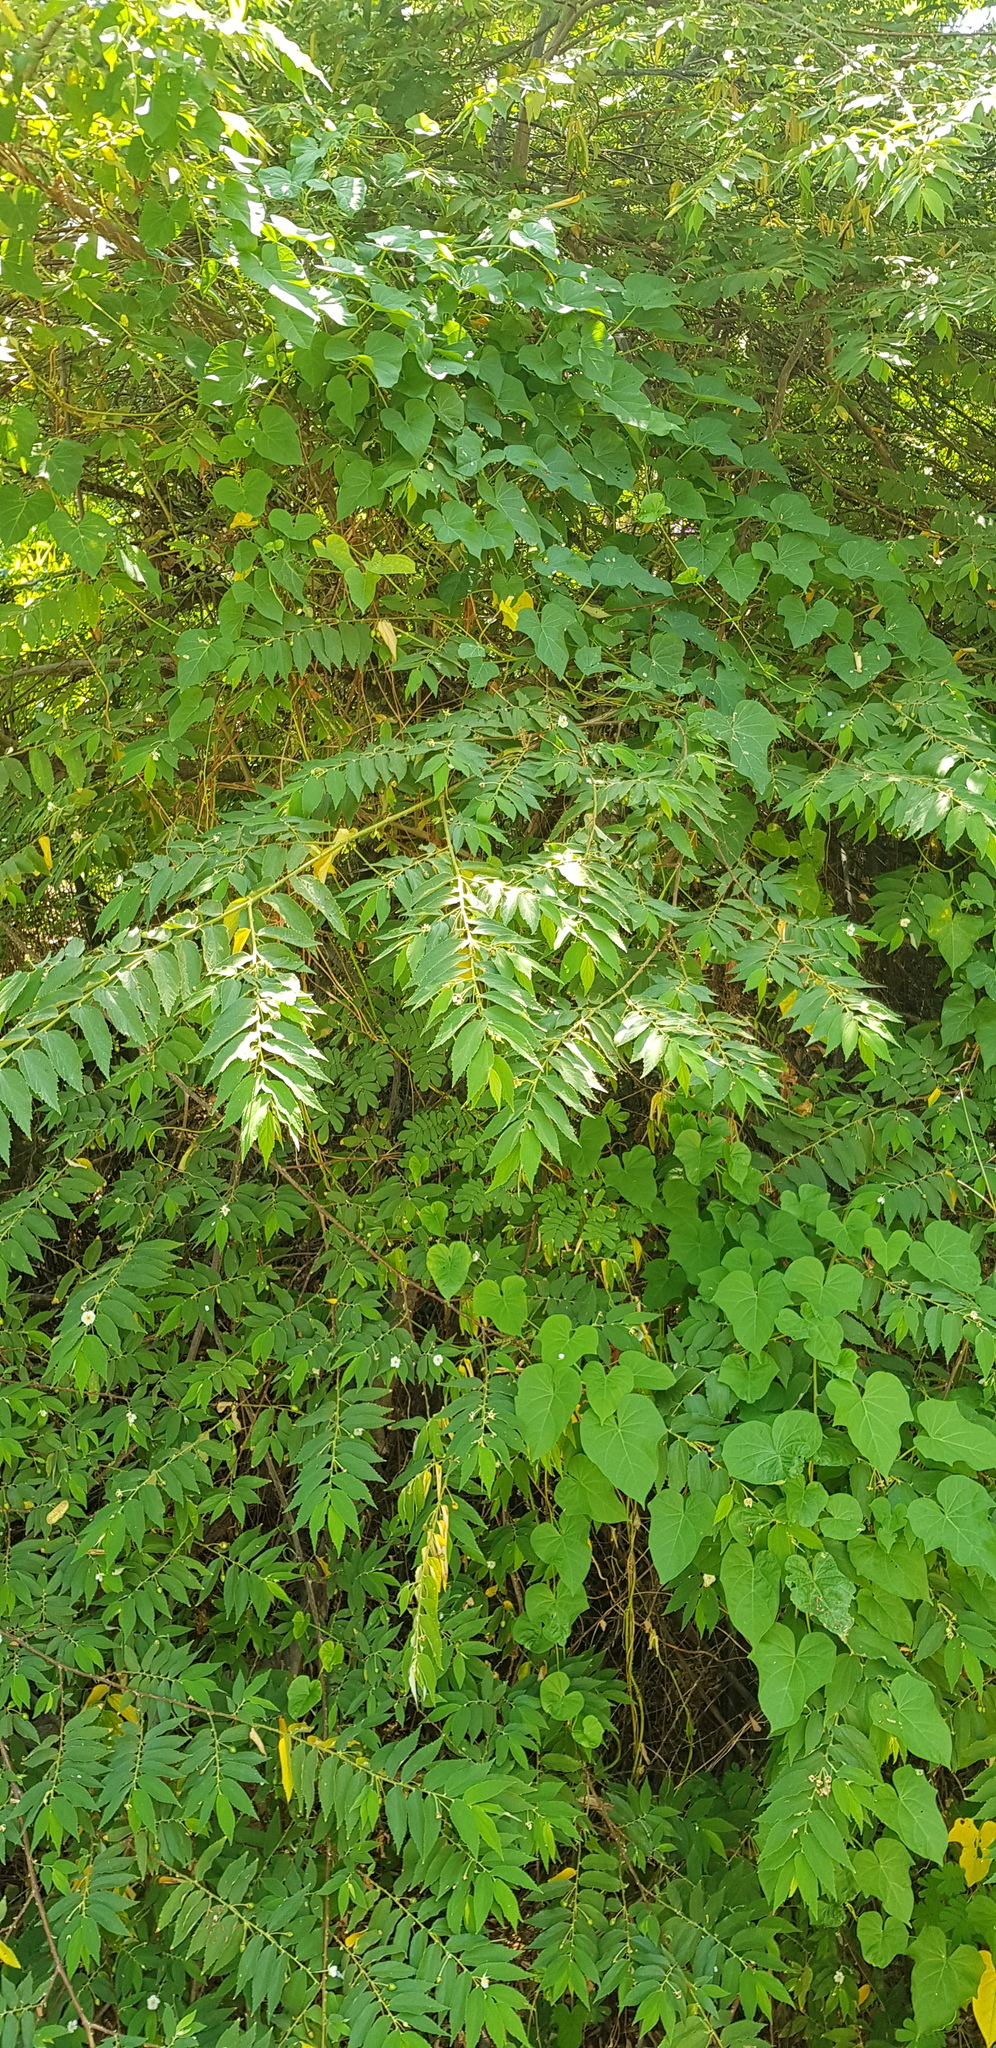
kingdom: Plantae
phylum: Tracheophyta
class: Magnoliopsida
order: Malvales
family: Muntingiaceae
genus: Muntingia
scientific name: Muntingia calabura
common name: Strawberrytree
